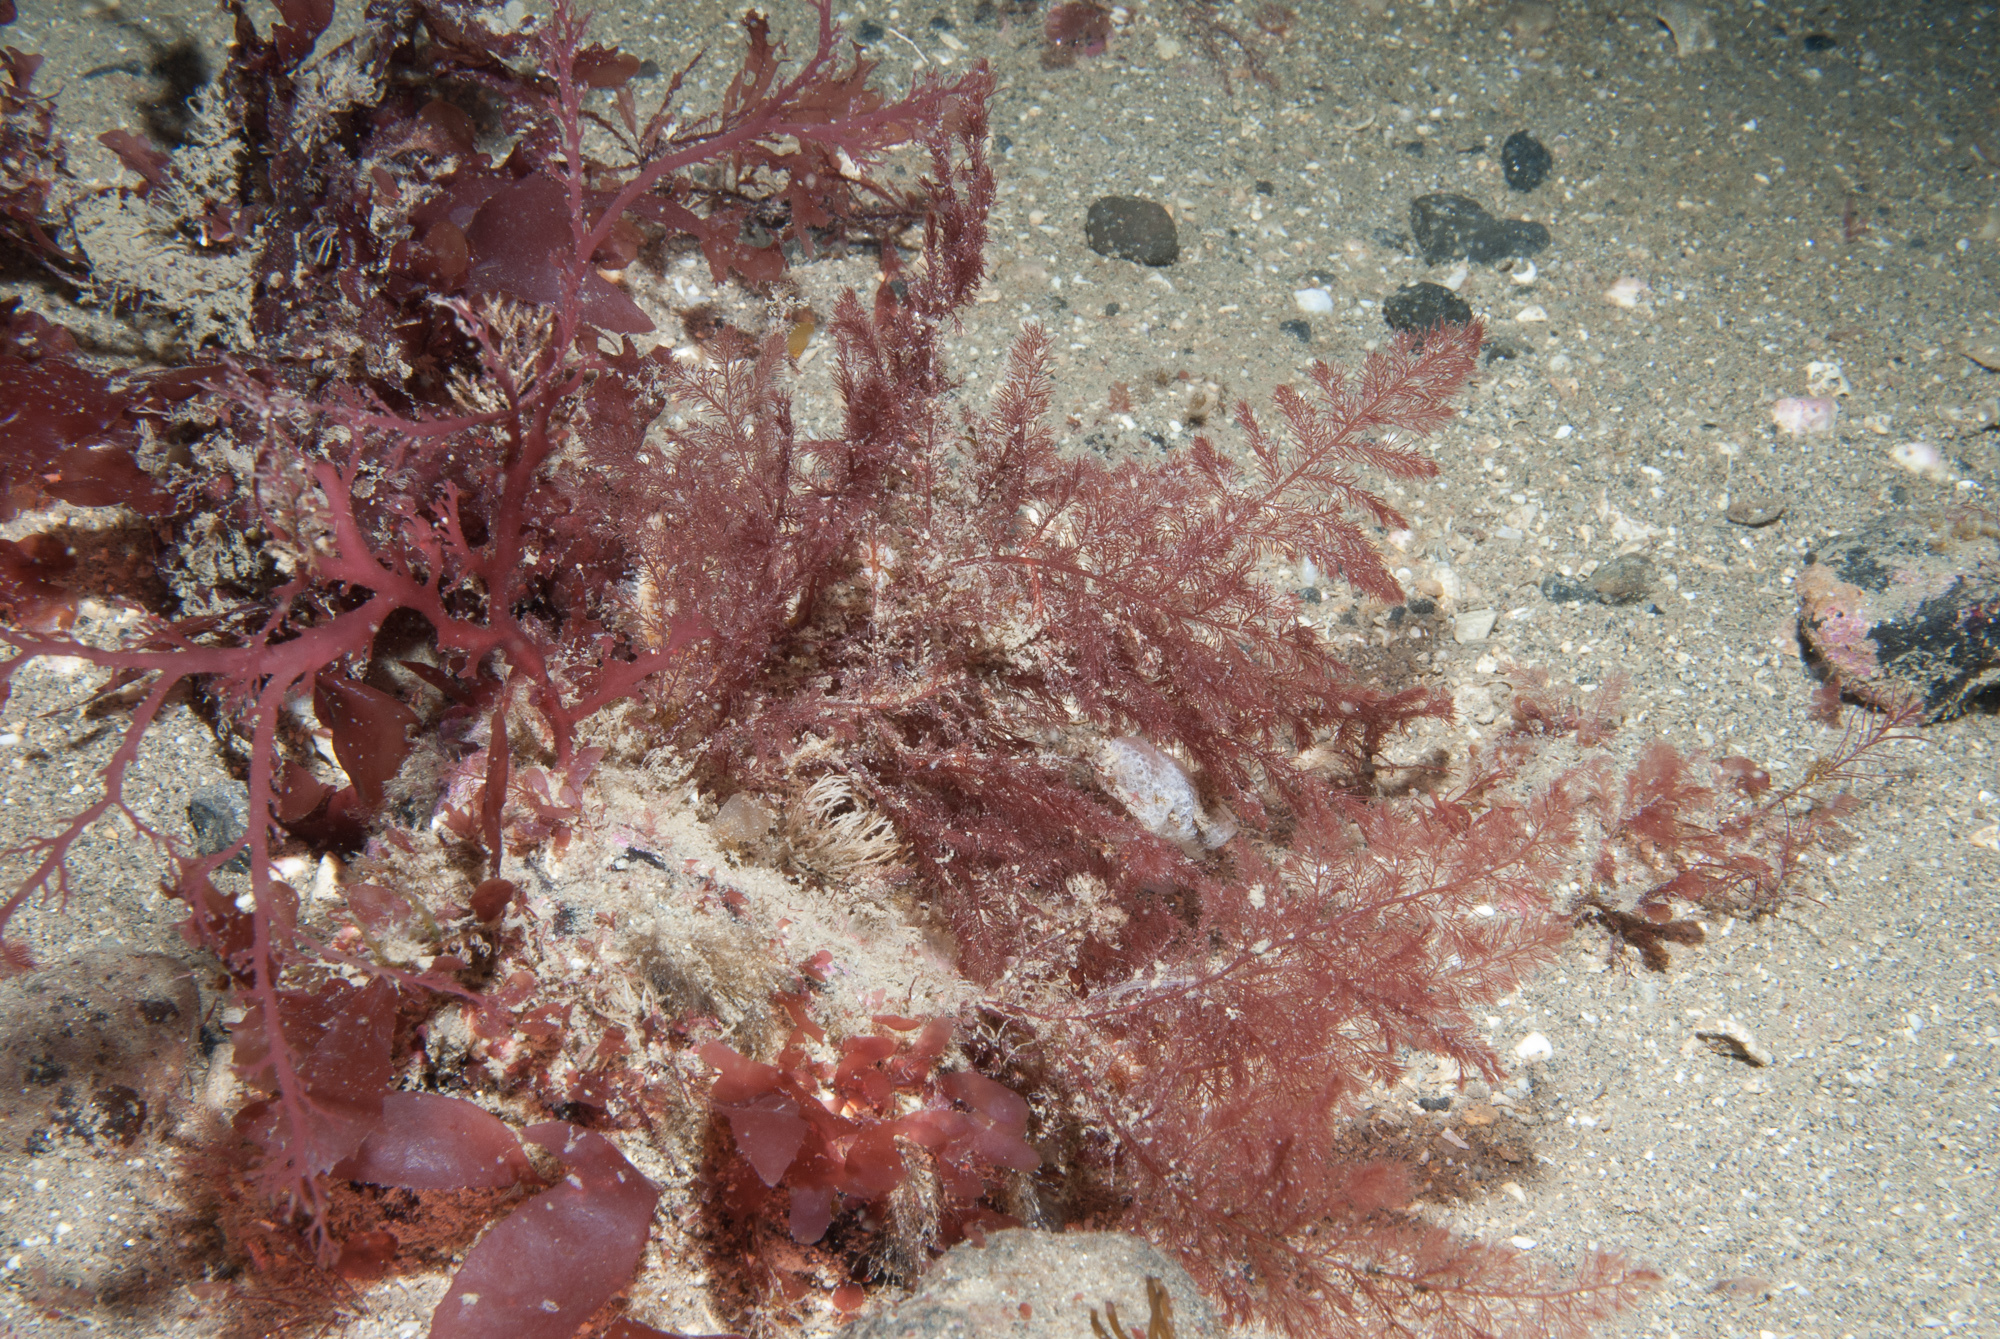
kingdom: Plantae
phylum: Rhodophyta
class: Florideophyceae
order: Ceramiales
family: Dasyaceae
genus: Heterosiphonia
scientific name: Heterosiphonia plumosa
